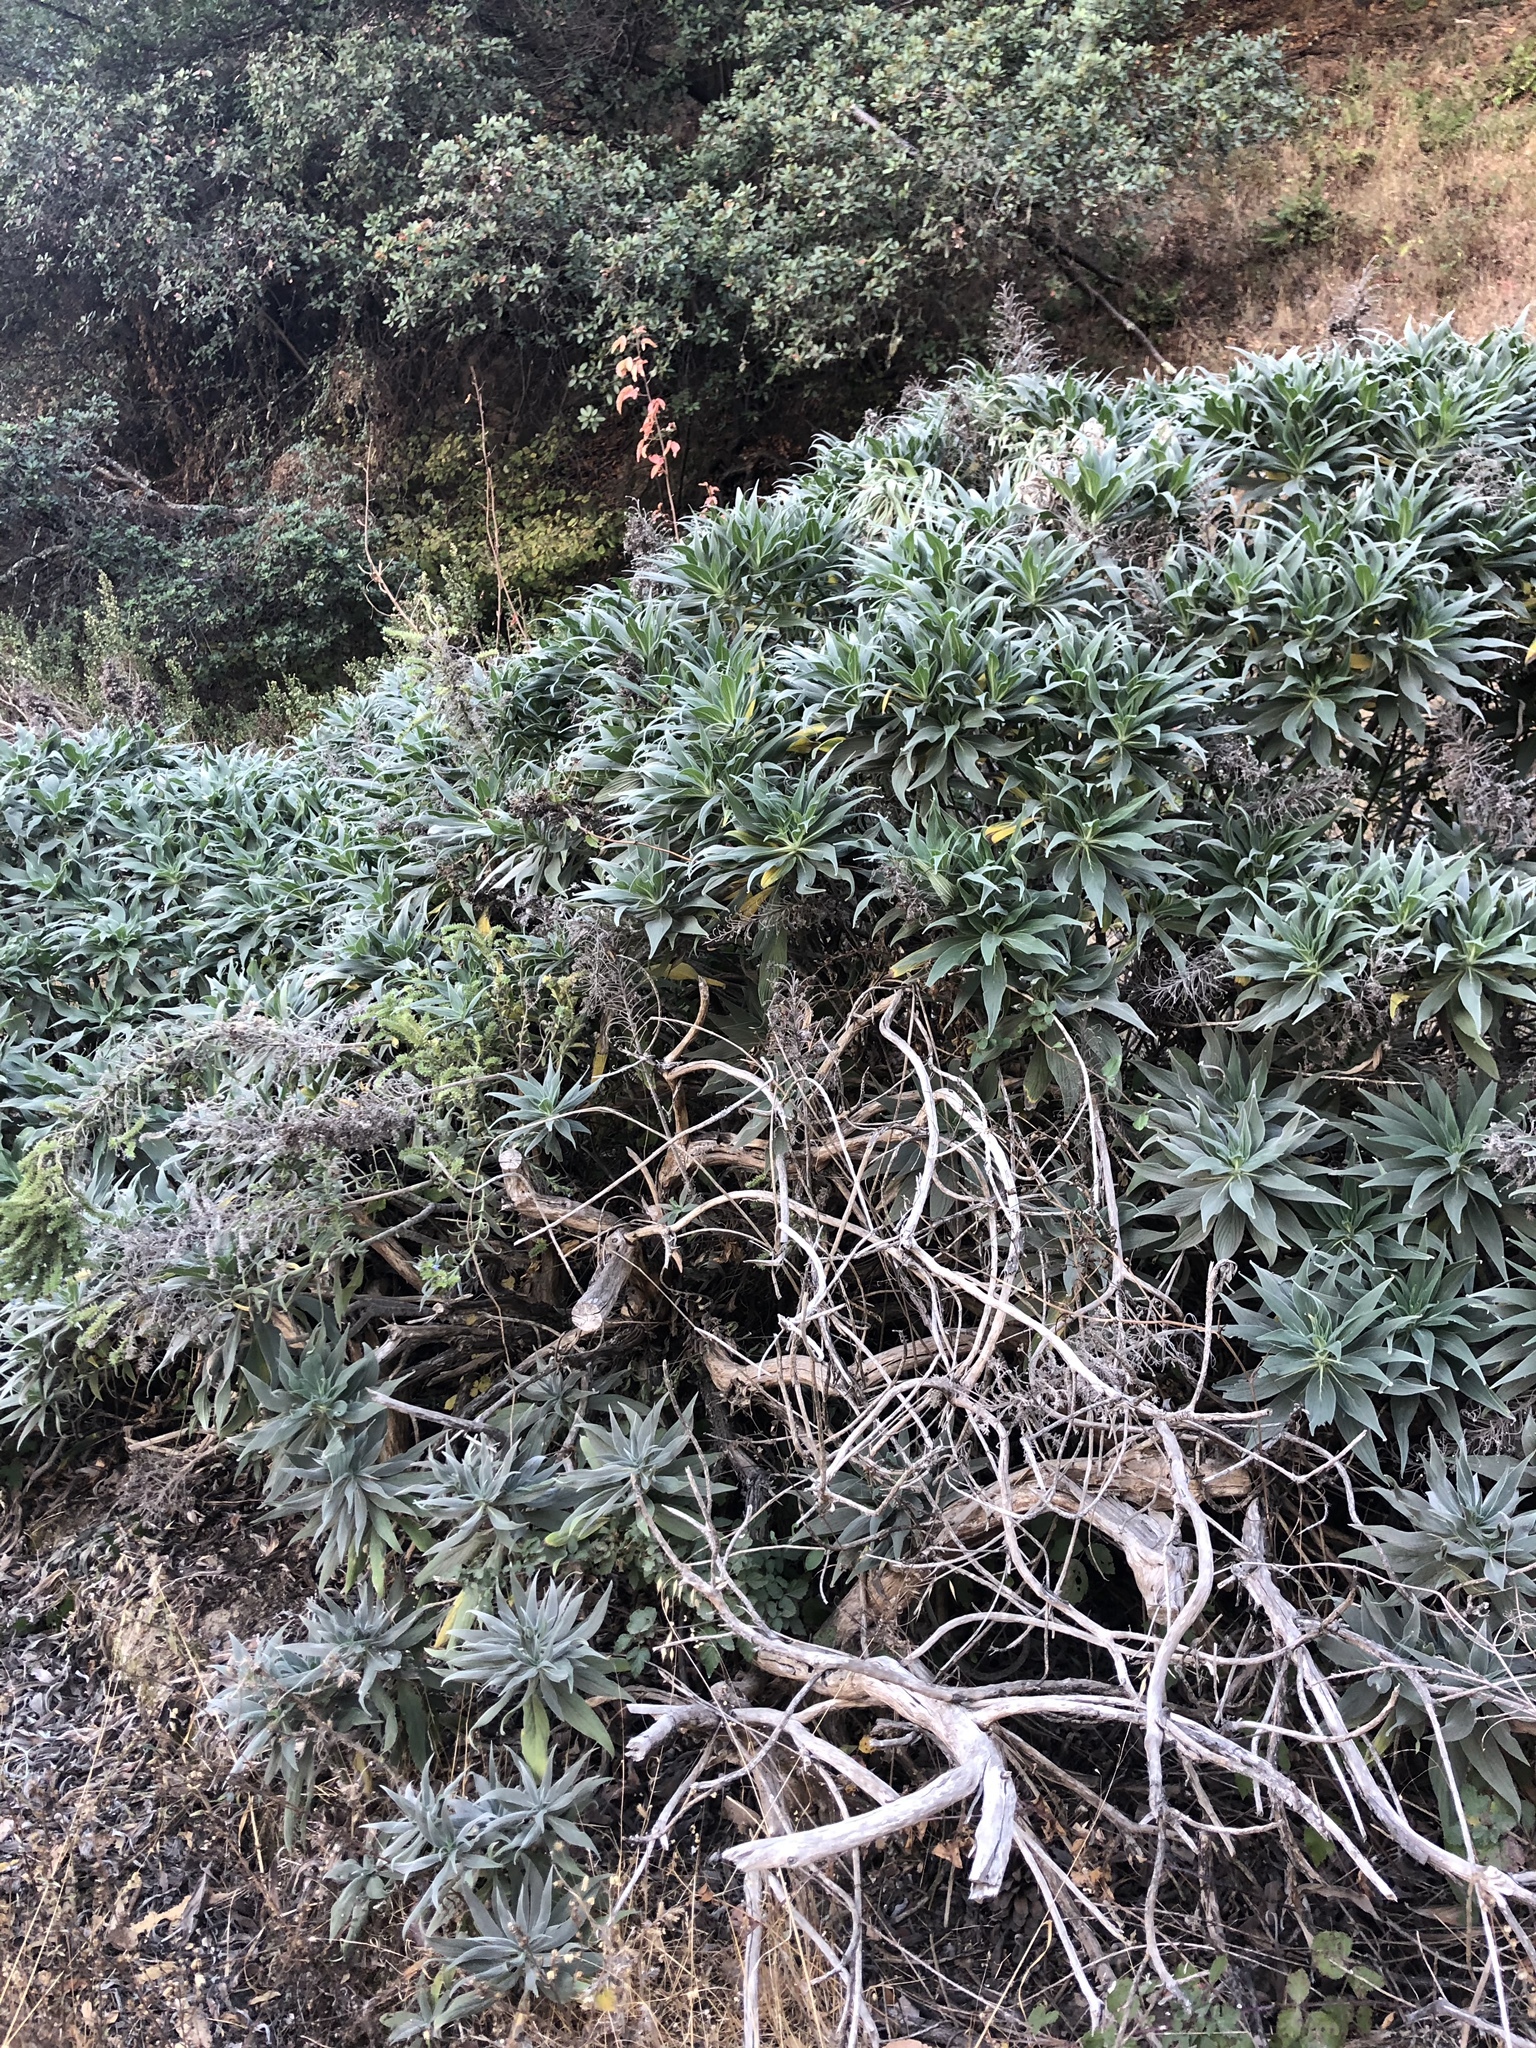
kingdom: Plantae
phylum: Tracheophyta
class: Magnoliopsida
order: Boraginales
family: Boraginaceae
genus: Echium
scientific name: Echium candicans
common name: Pride of madeira
